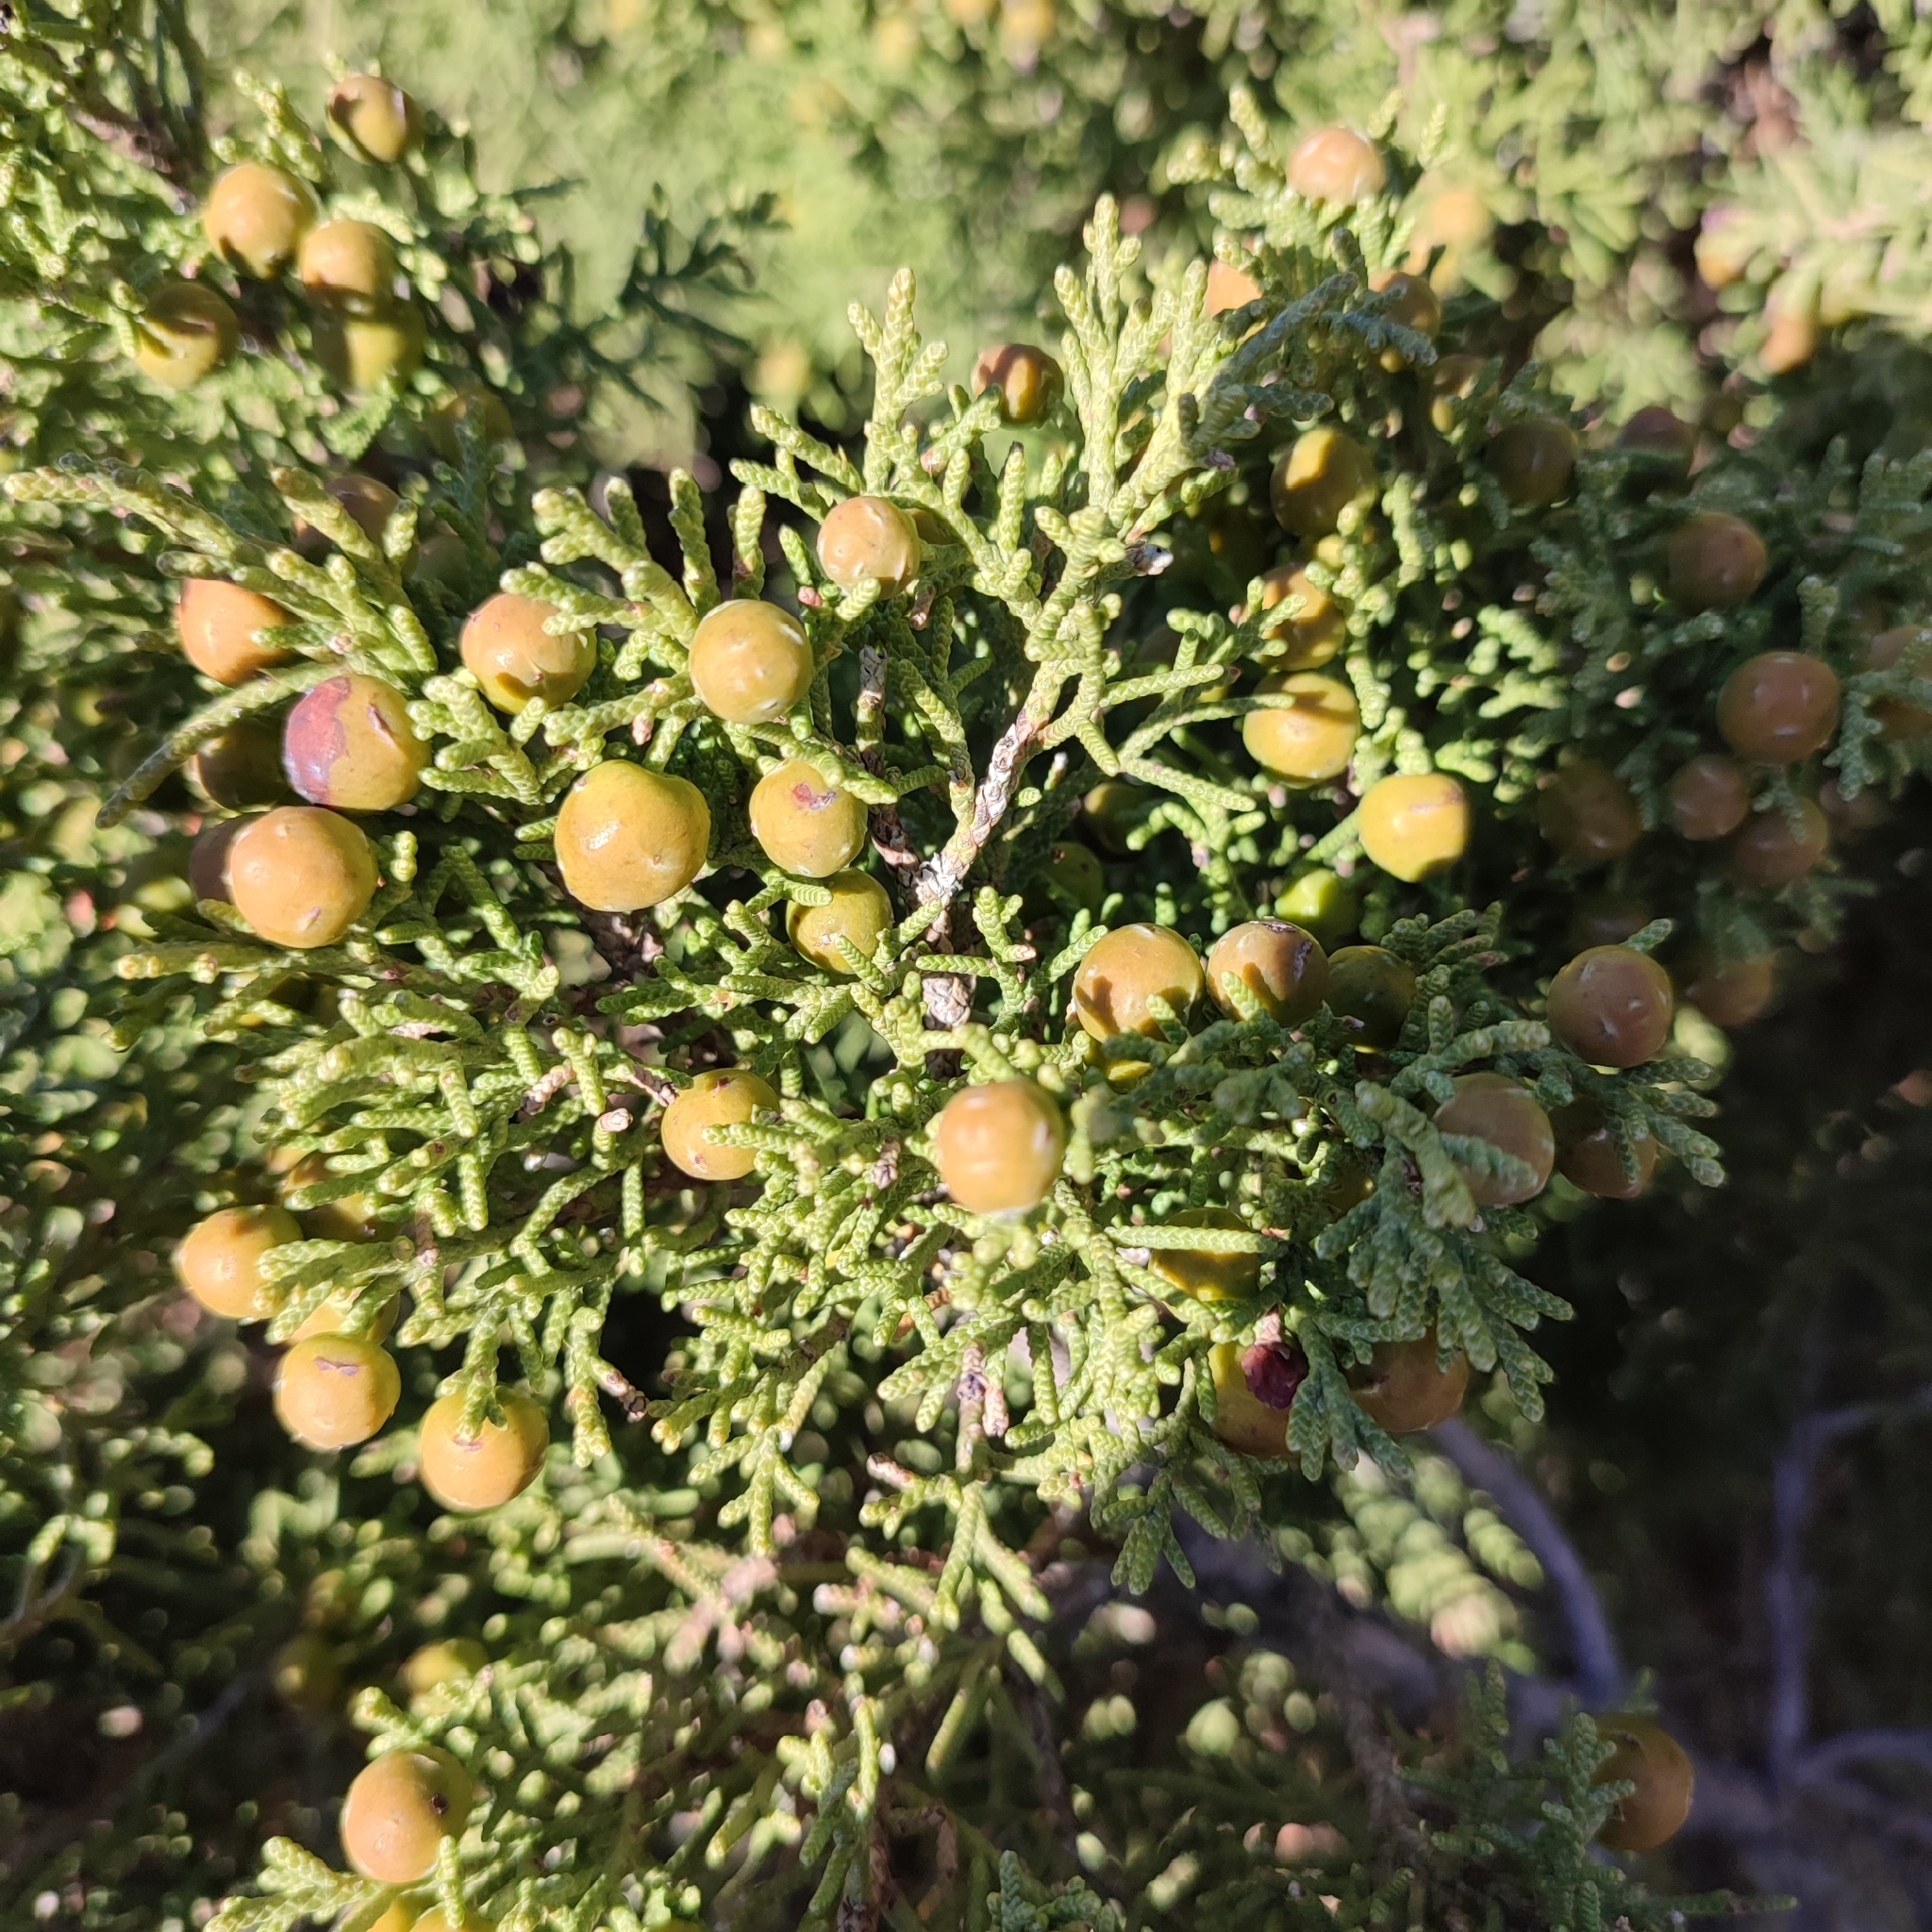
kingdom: Plantae
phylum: Tracheophyta
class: Pinopsida
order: Pinales
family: Cupressaceae
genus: Juniperus
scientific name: Juniperus phoenicea
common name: Phoenician juniper
